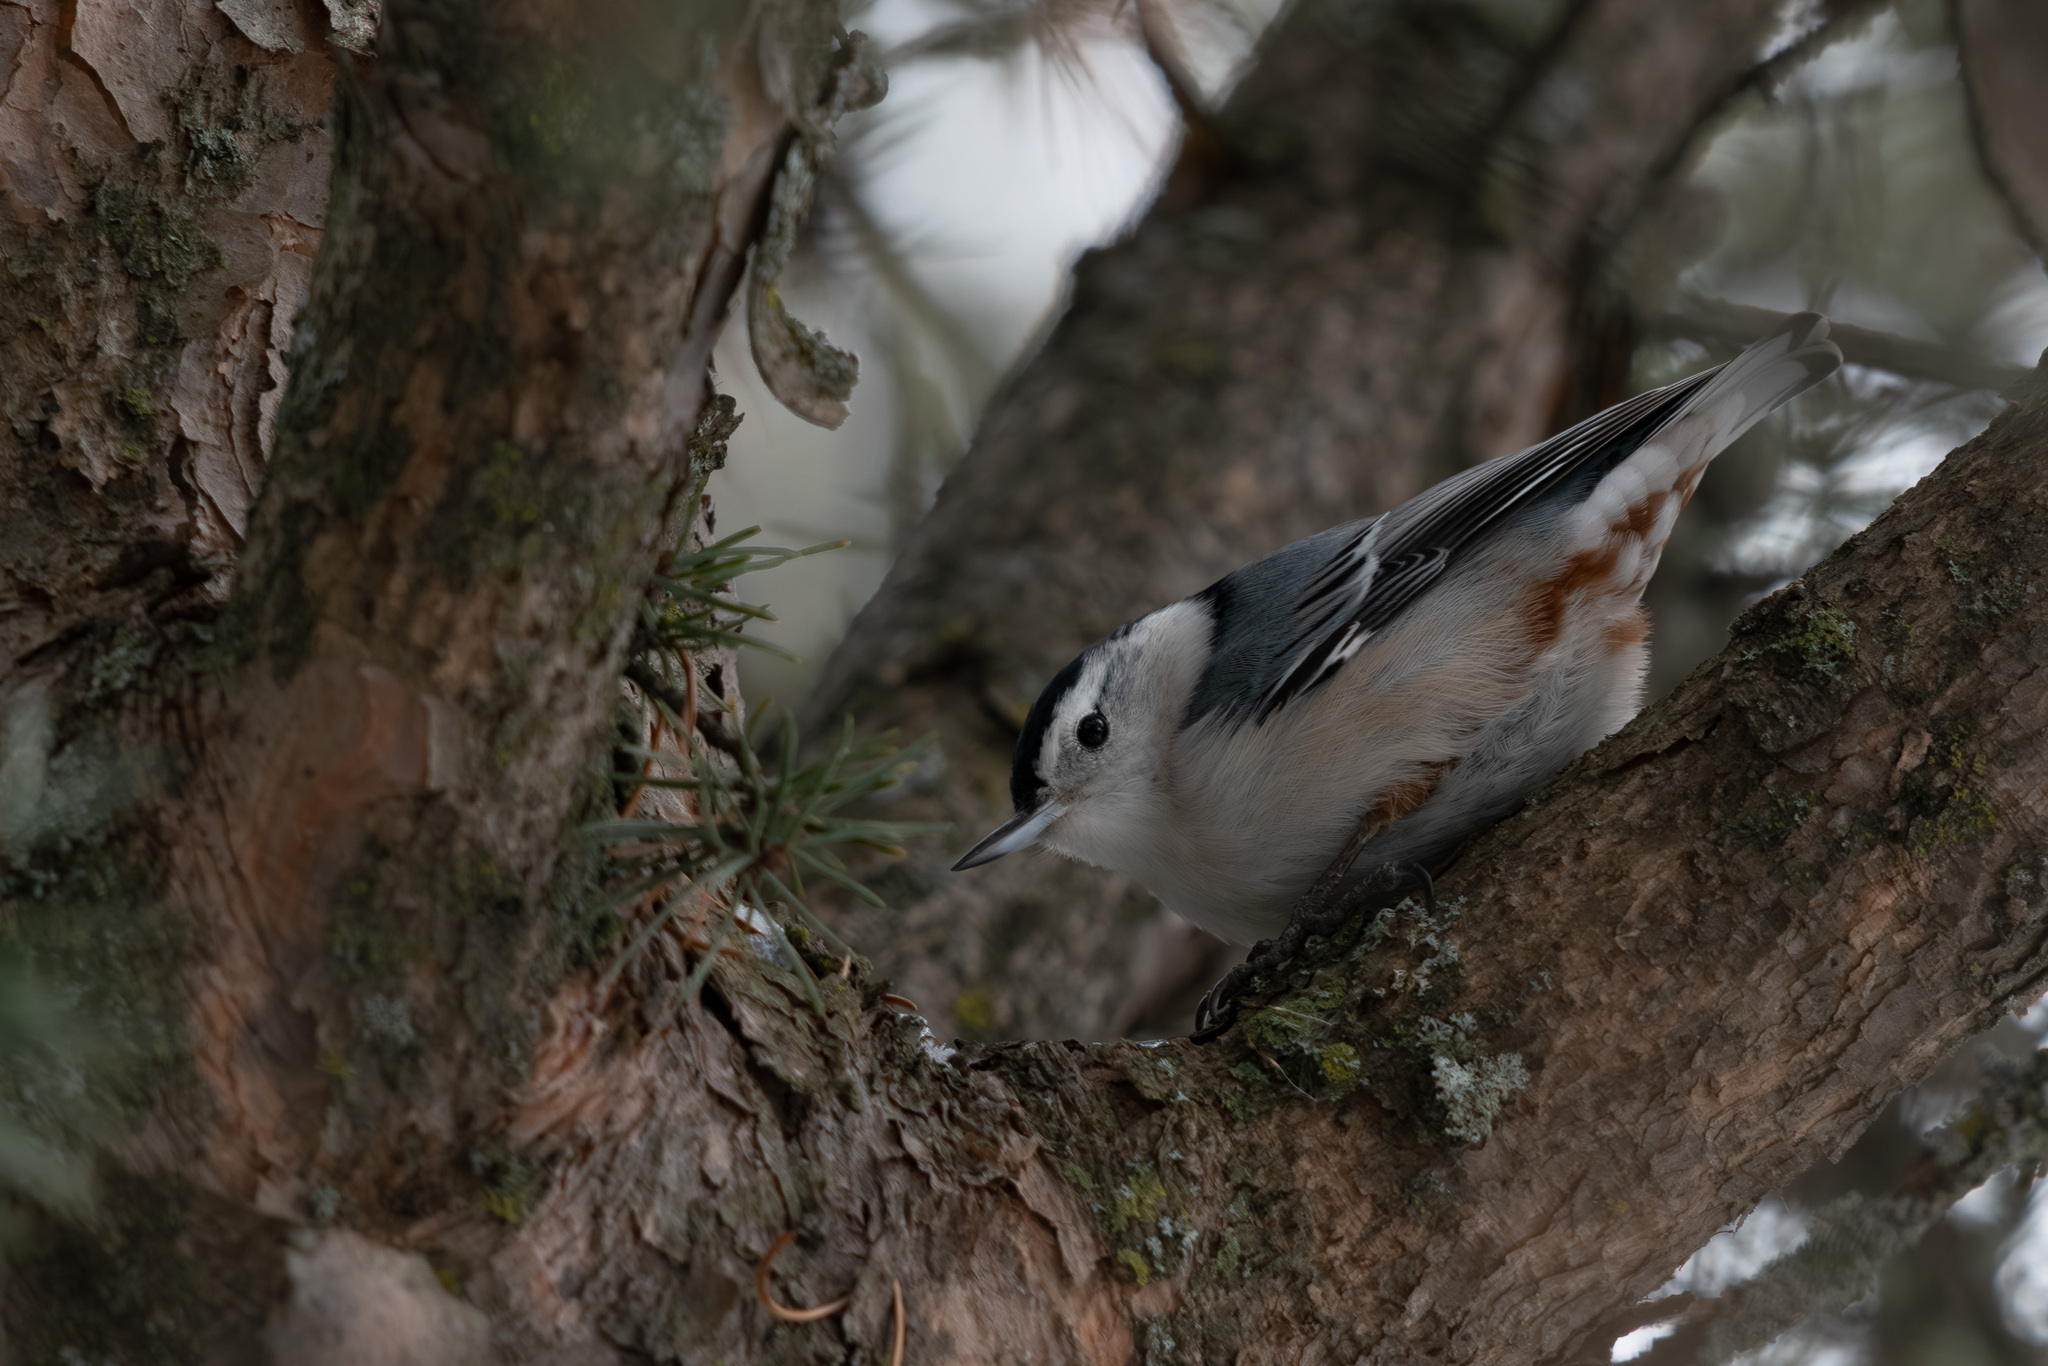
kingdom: Animalia
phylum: Chordata
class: Aves
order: Passeriformes
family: Sittidae
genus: Sitta
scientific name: Sitta carolinensis
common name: White-breasted nuthatch
